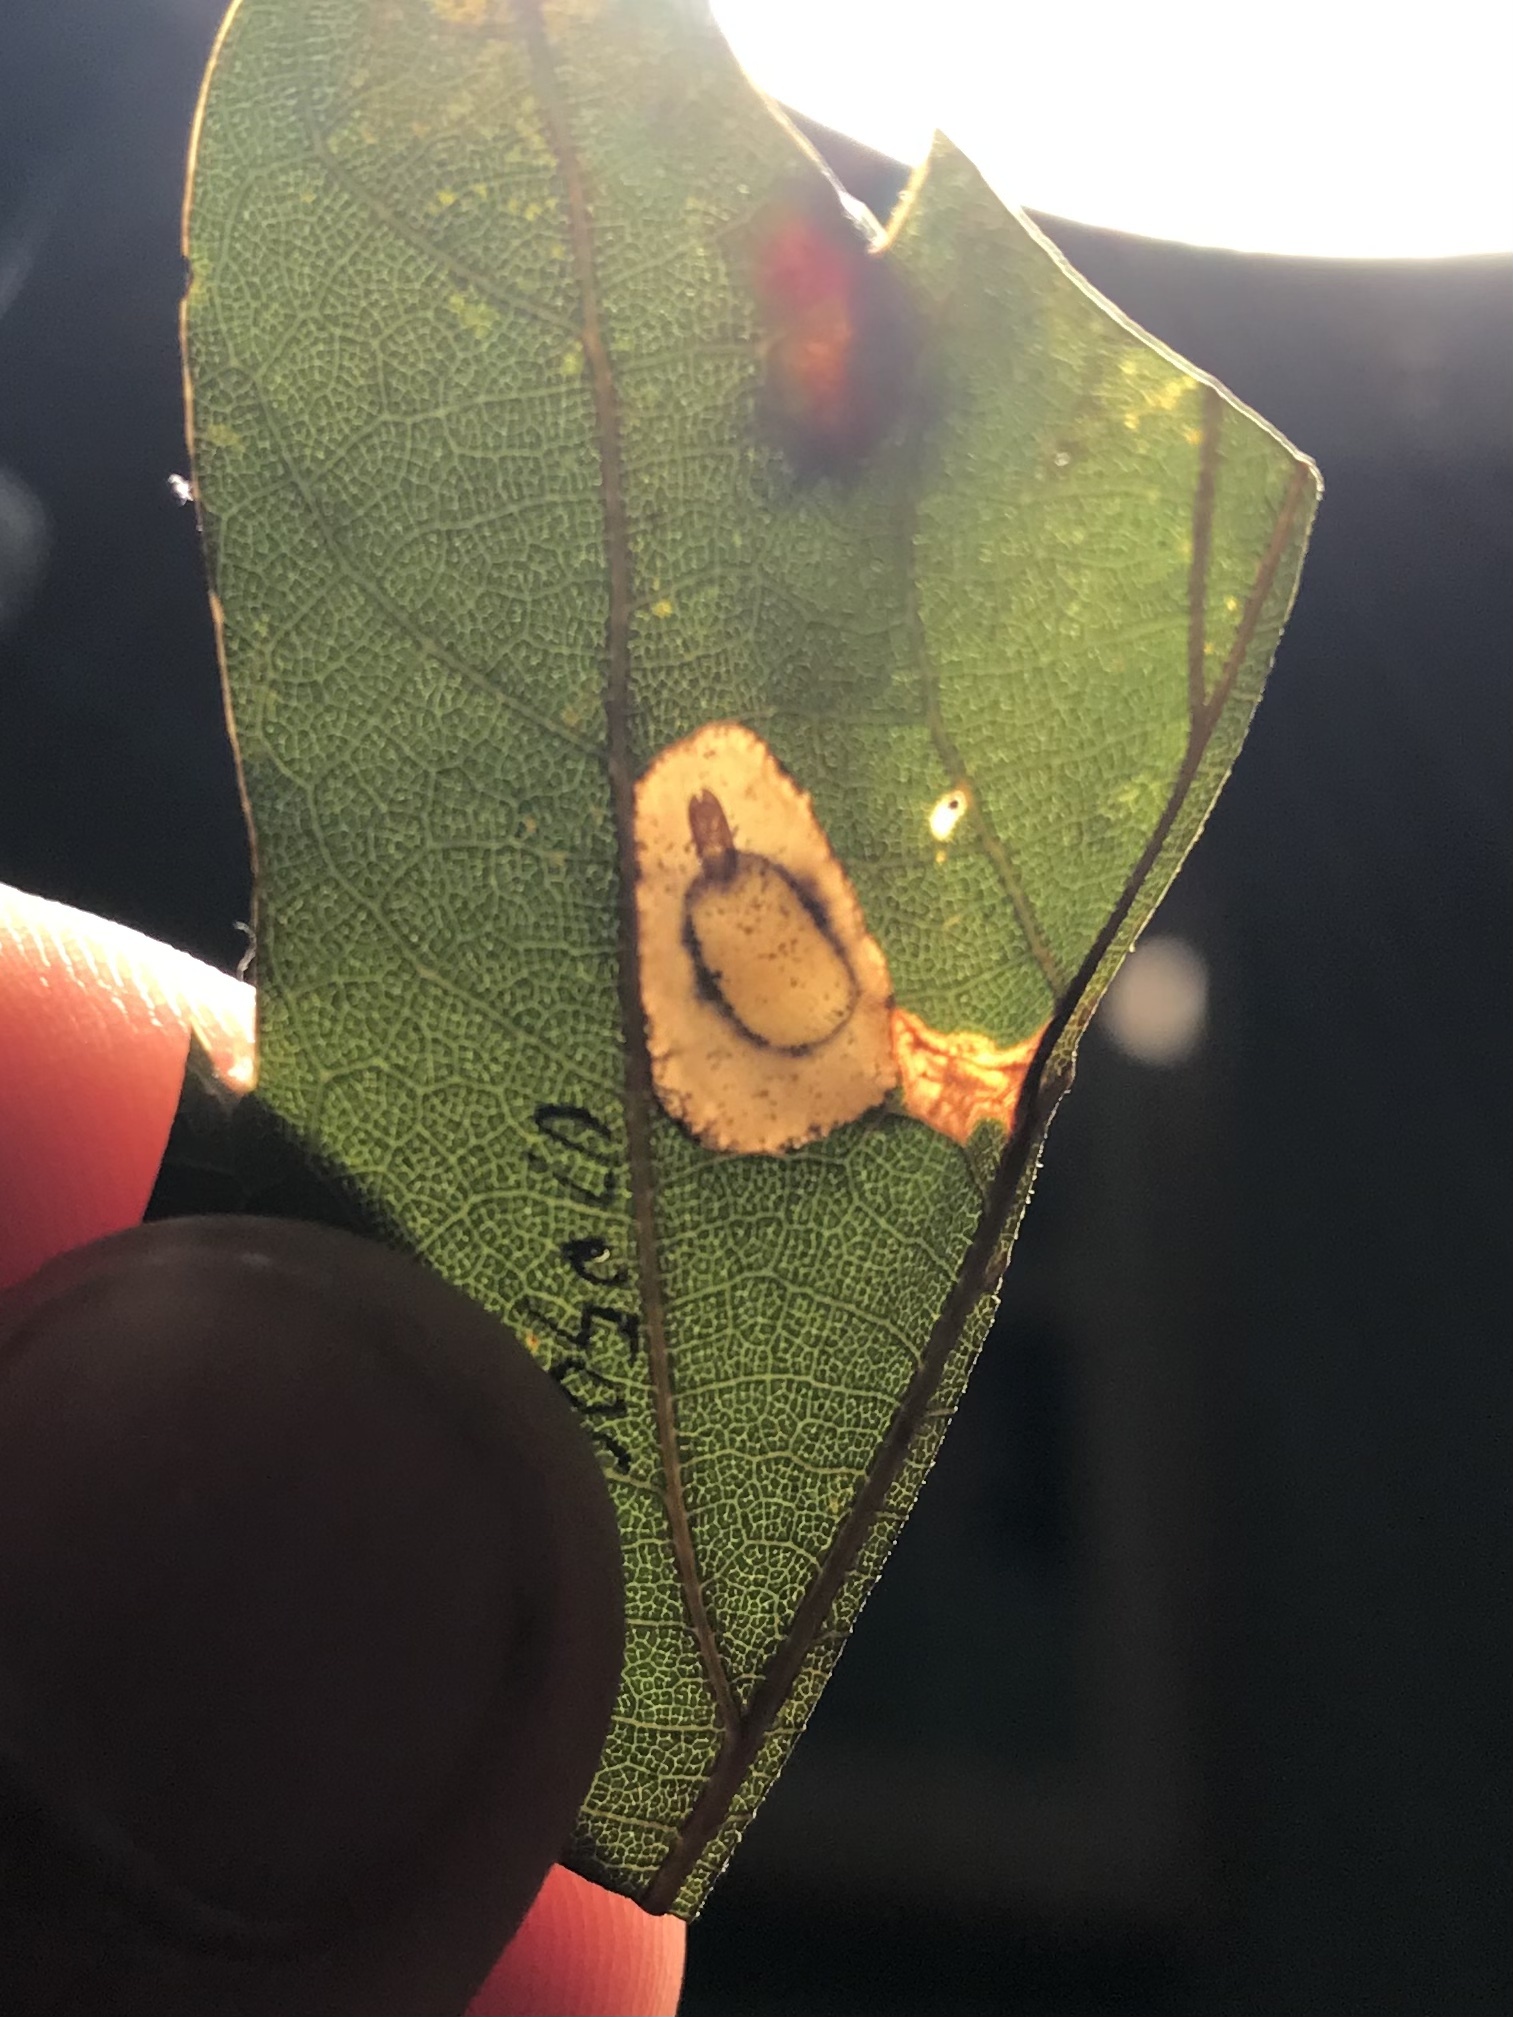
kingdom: Animalia
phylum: Arthropoda
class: Insecta
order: Lepidoptera
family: Gracillariidae
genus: Phyllonorycter
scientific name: Phyllonorycter basistrigella
